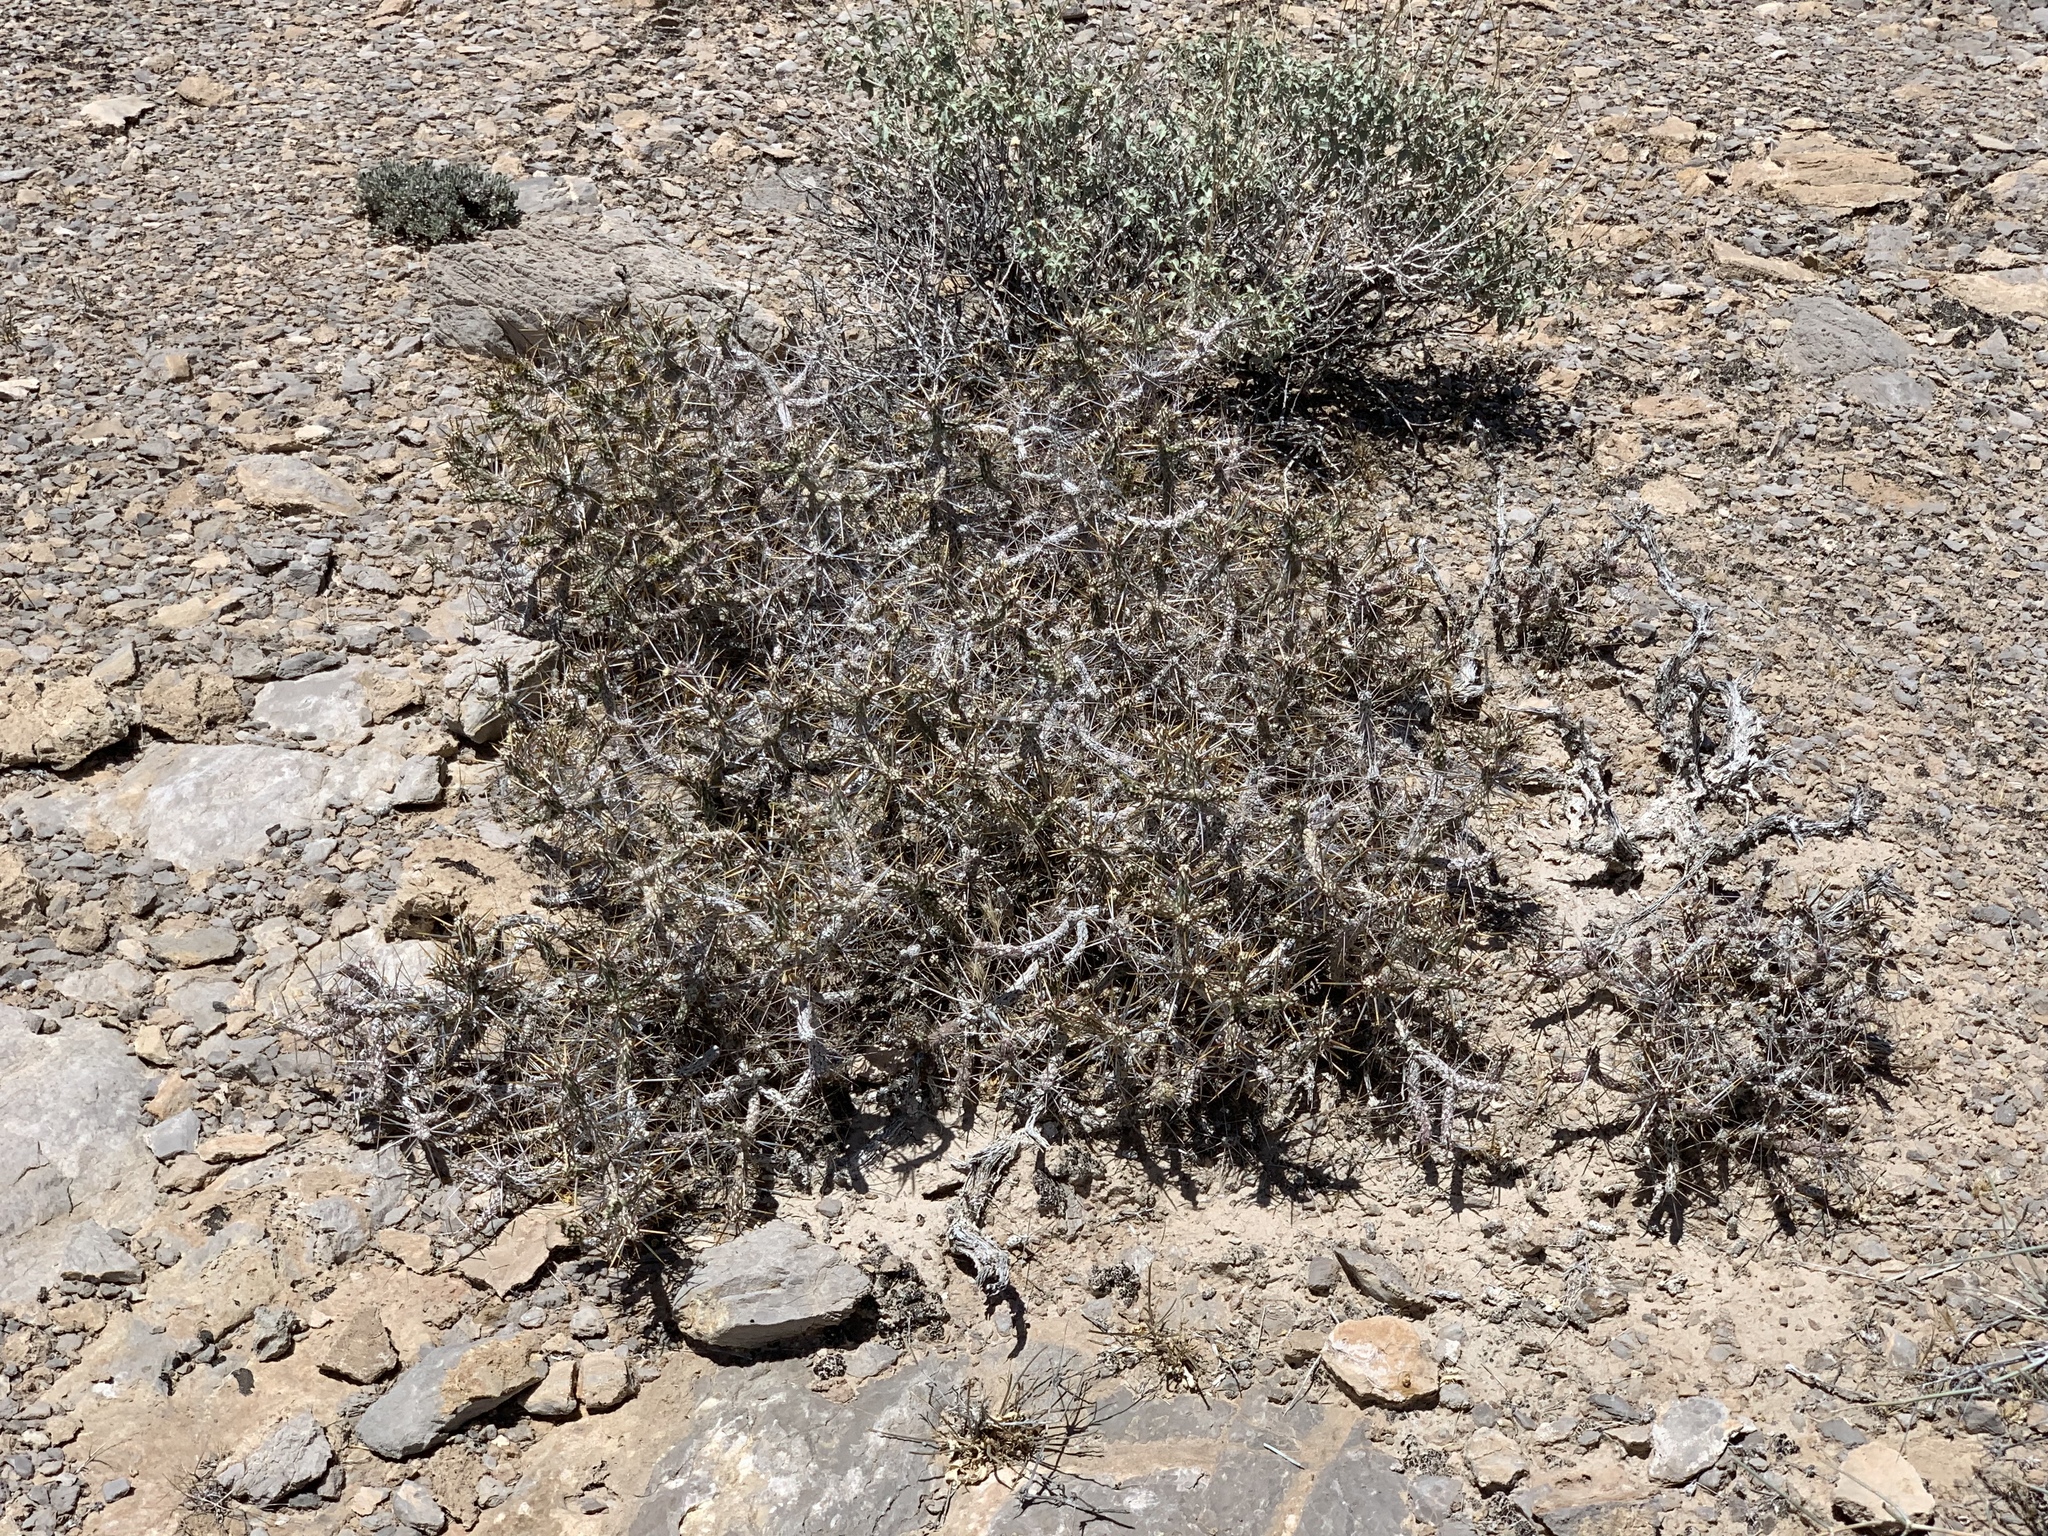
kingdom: Plantae
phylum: Tracheophyta
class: Magnoliopsida
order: Caryophyllales
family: Cactaceae
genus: Cylindropuntia
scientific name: Cylindropuntia ramosissima
